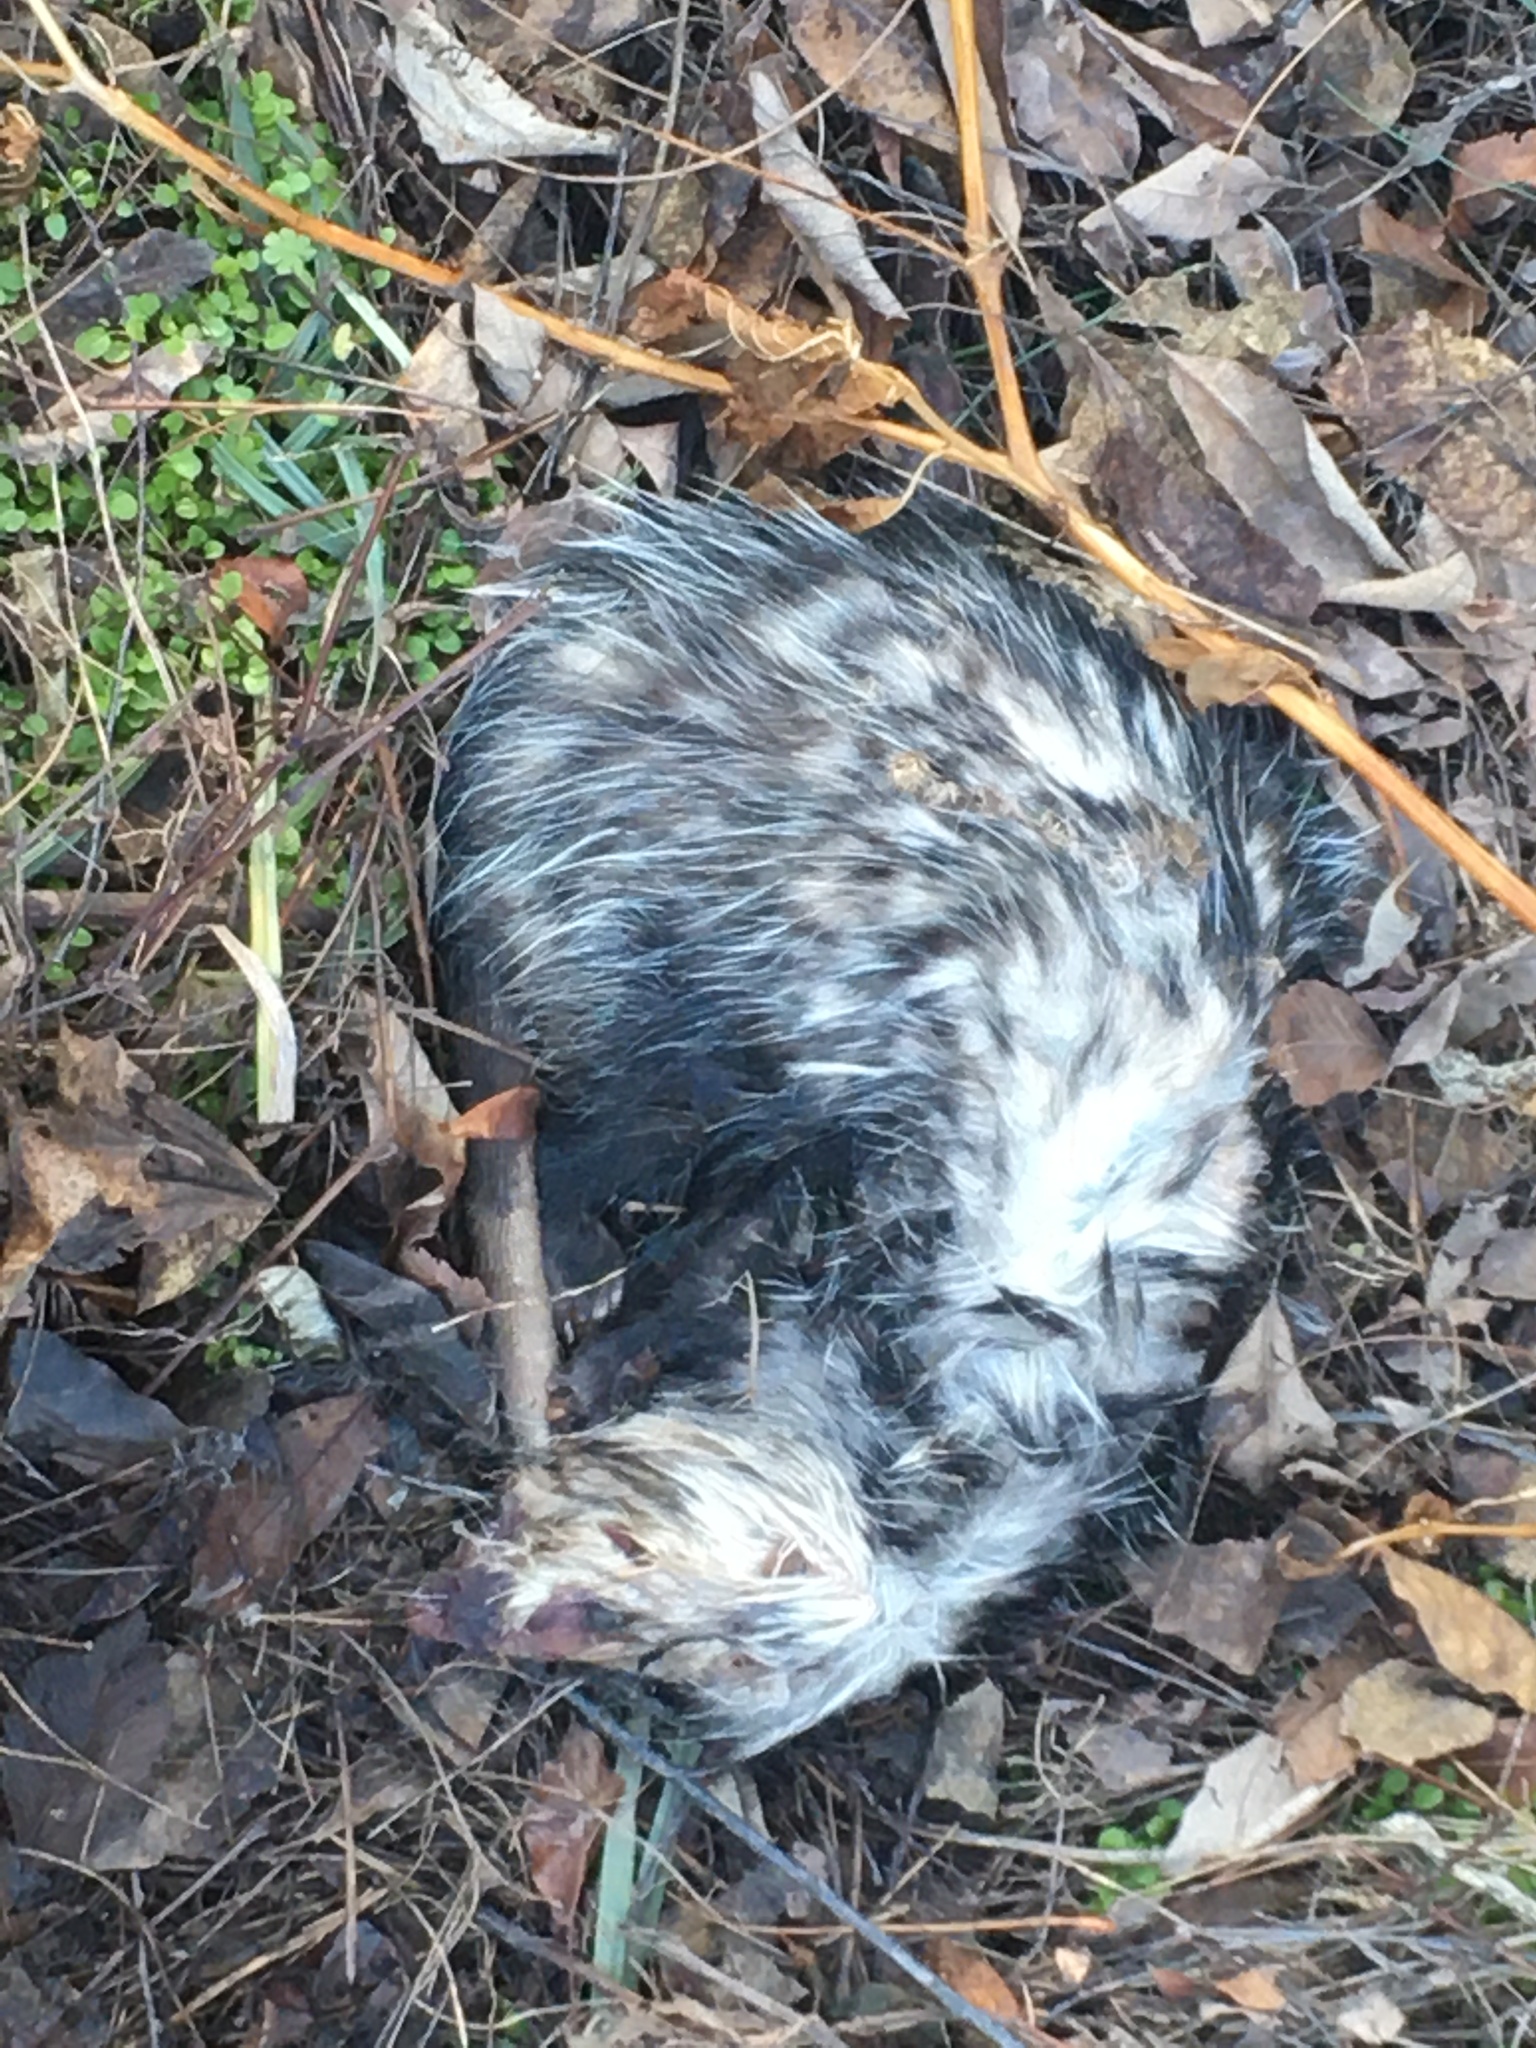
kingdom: Animalia
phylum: Chordata
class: Mammalia
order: Didelphimorphia
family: Didelphidae
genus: Didelphis
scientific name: Didelphis virginiana
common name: Virginia opossum
